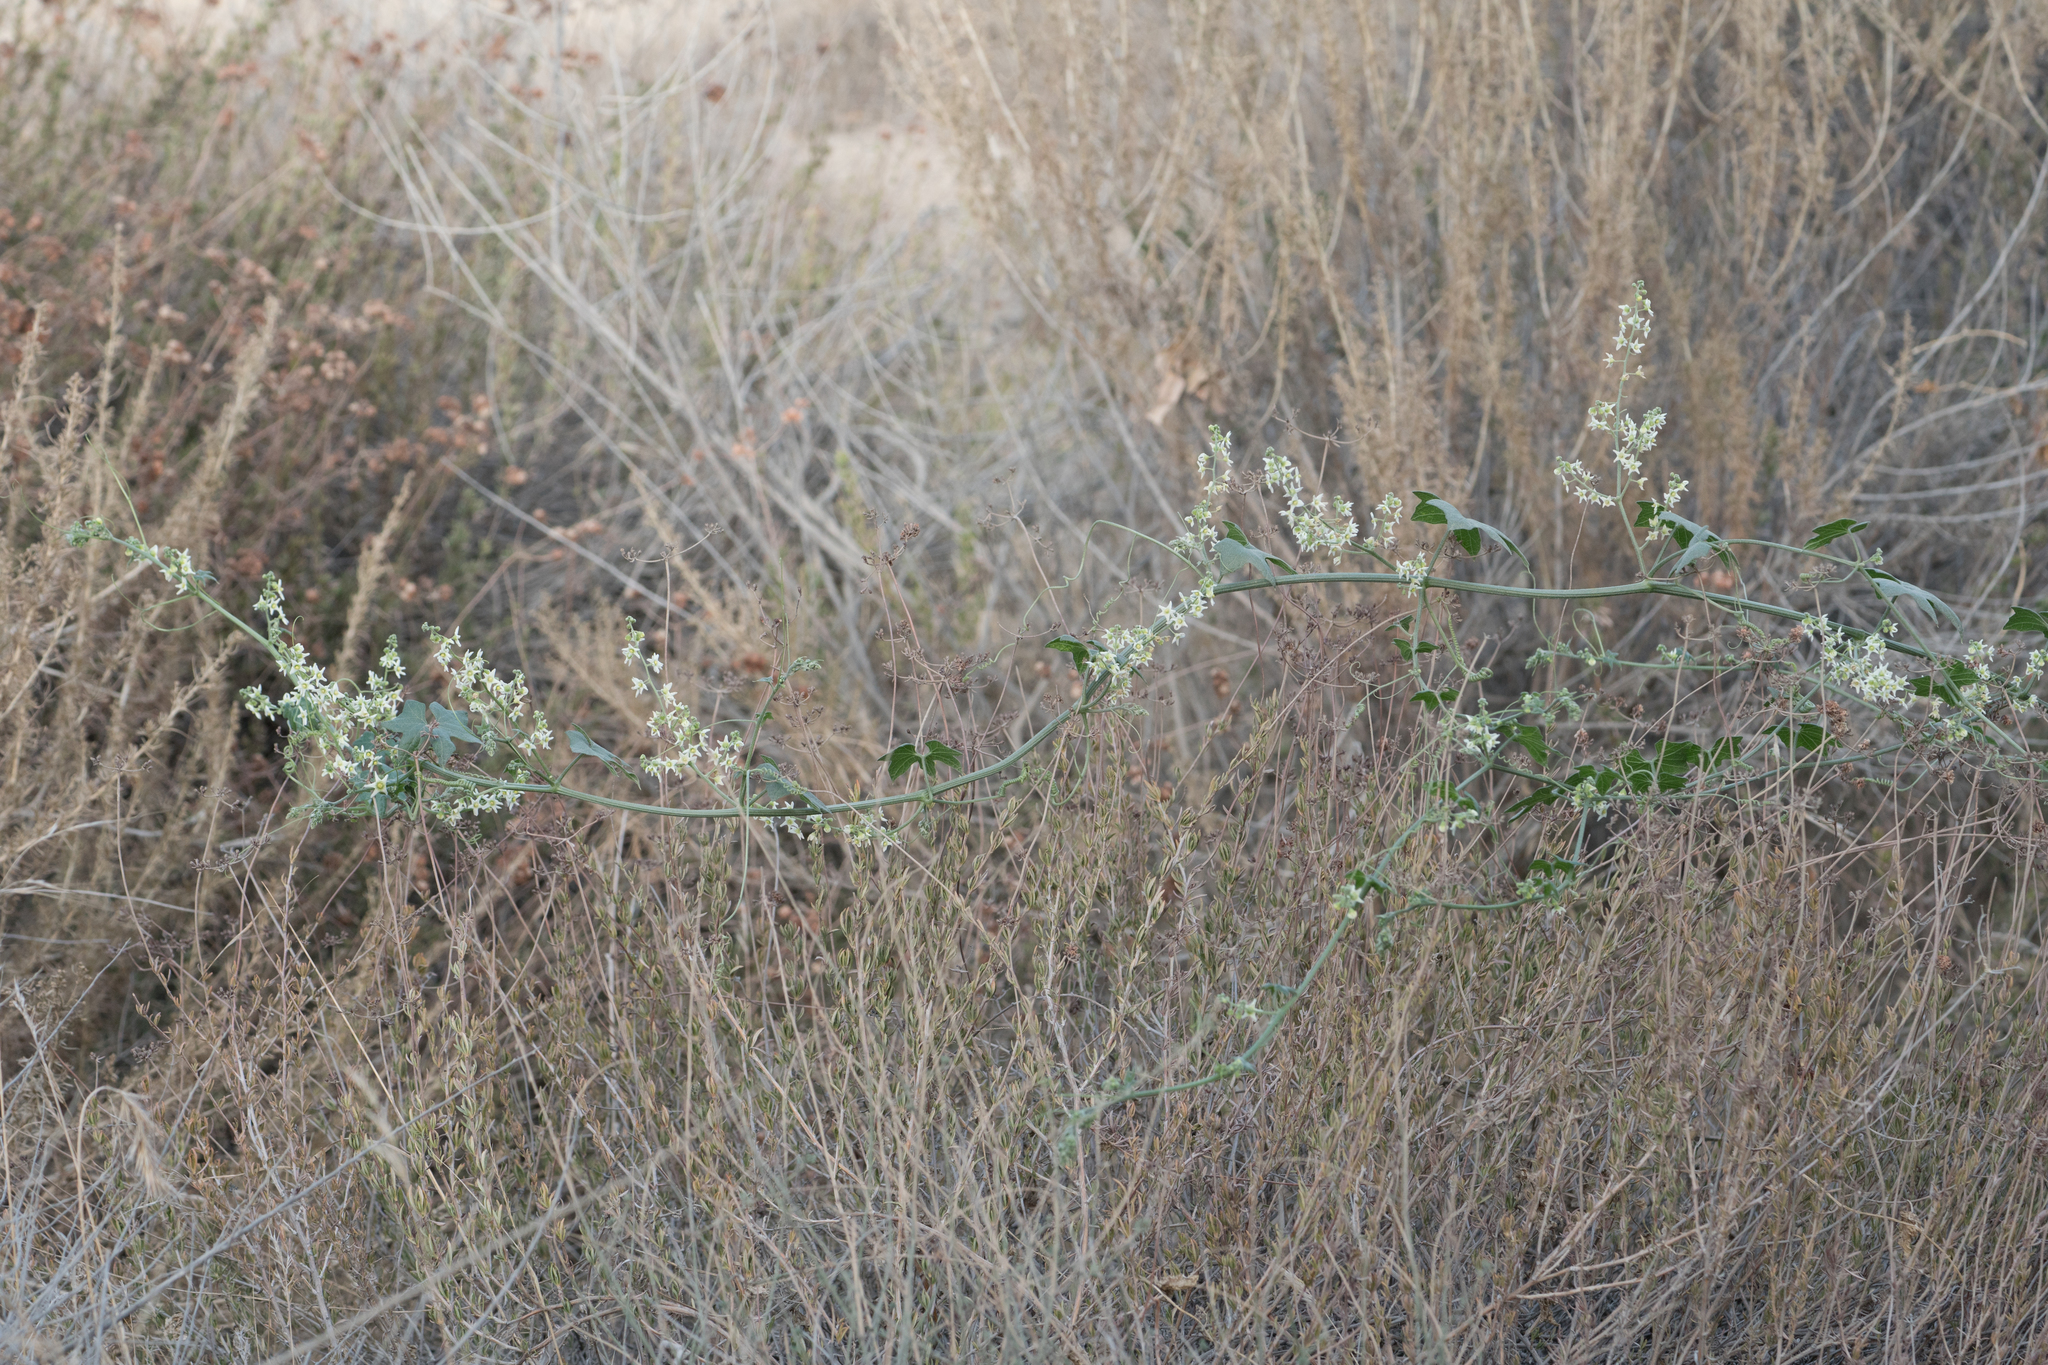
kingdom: Plantae
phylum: Tracheophyta
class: Magnoliopsida
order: Cucurbitales
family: Cucurbitaceae
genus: Marah
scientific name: Marah macrocarpa
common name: Cucamonga manroot
